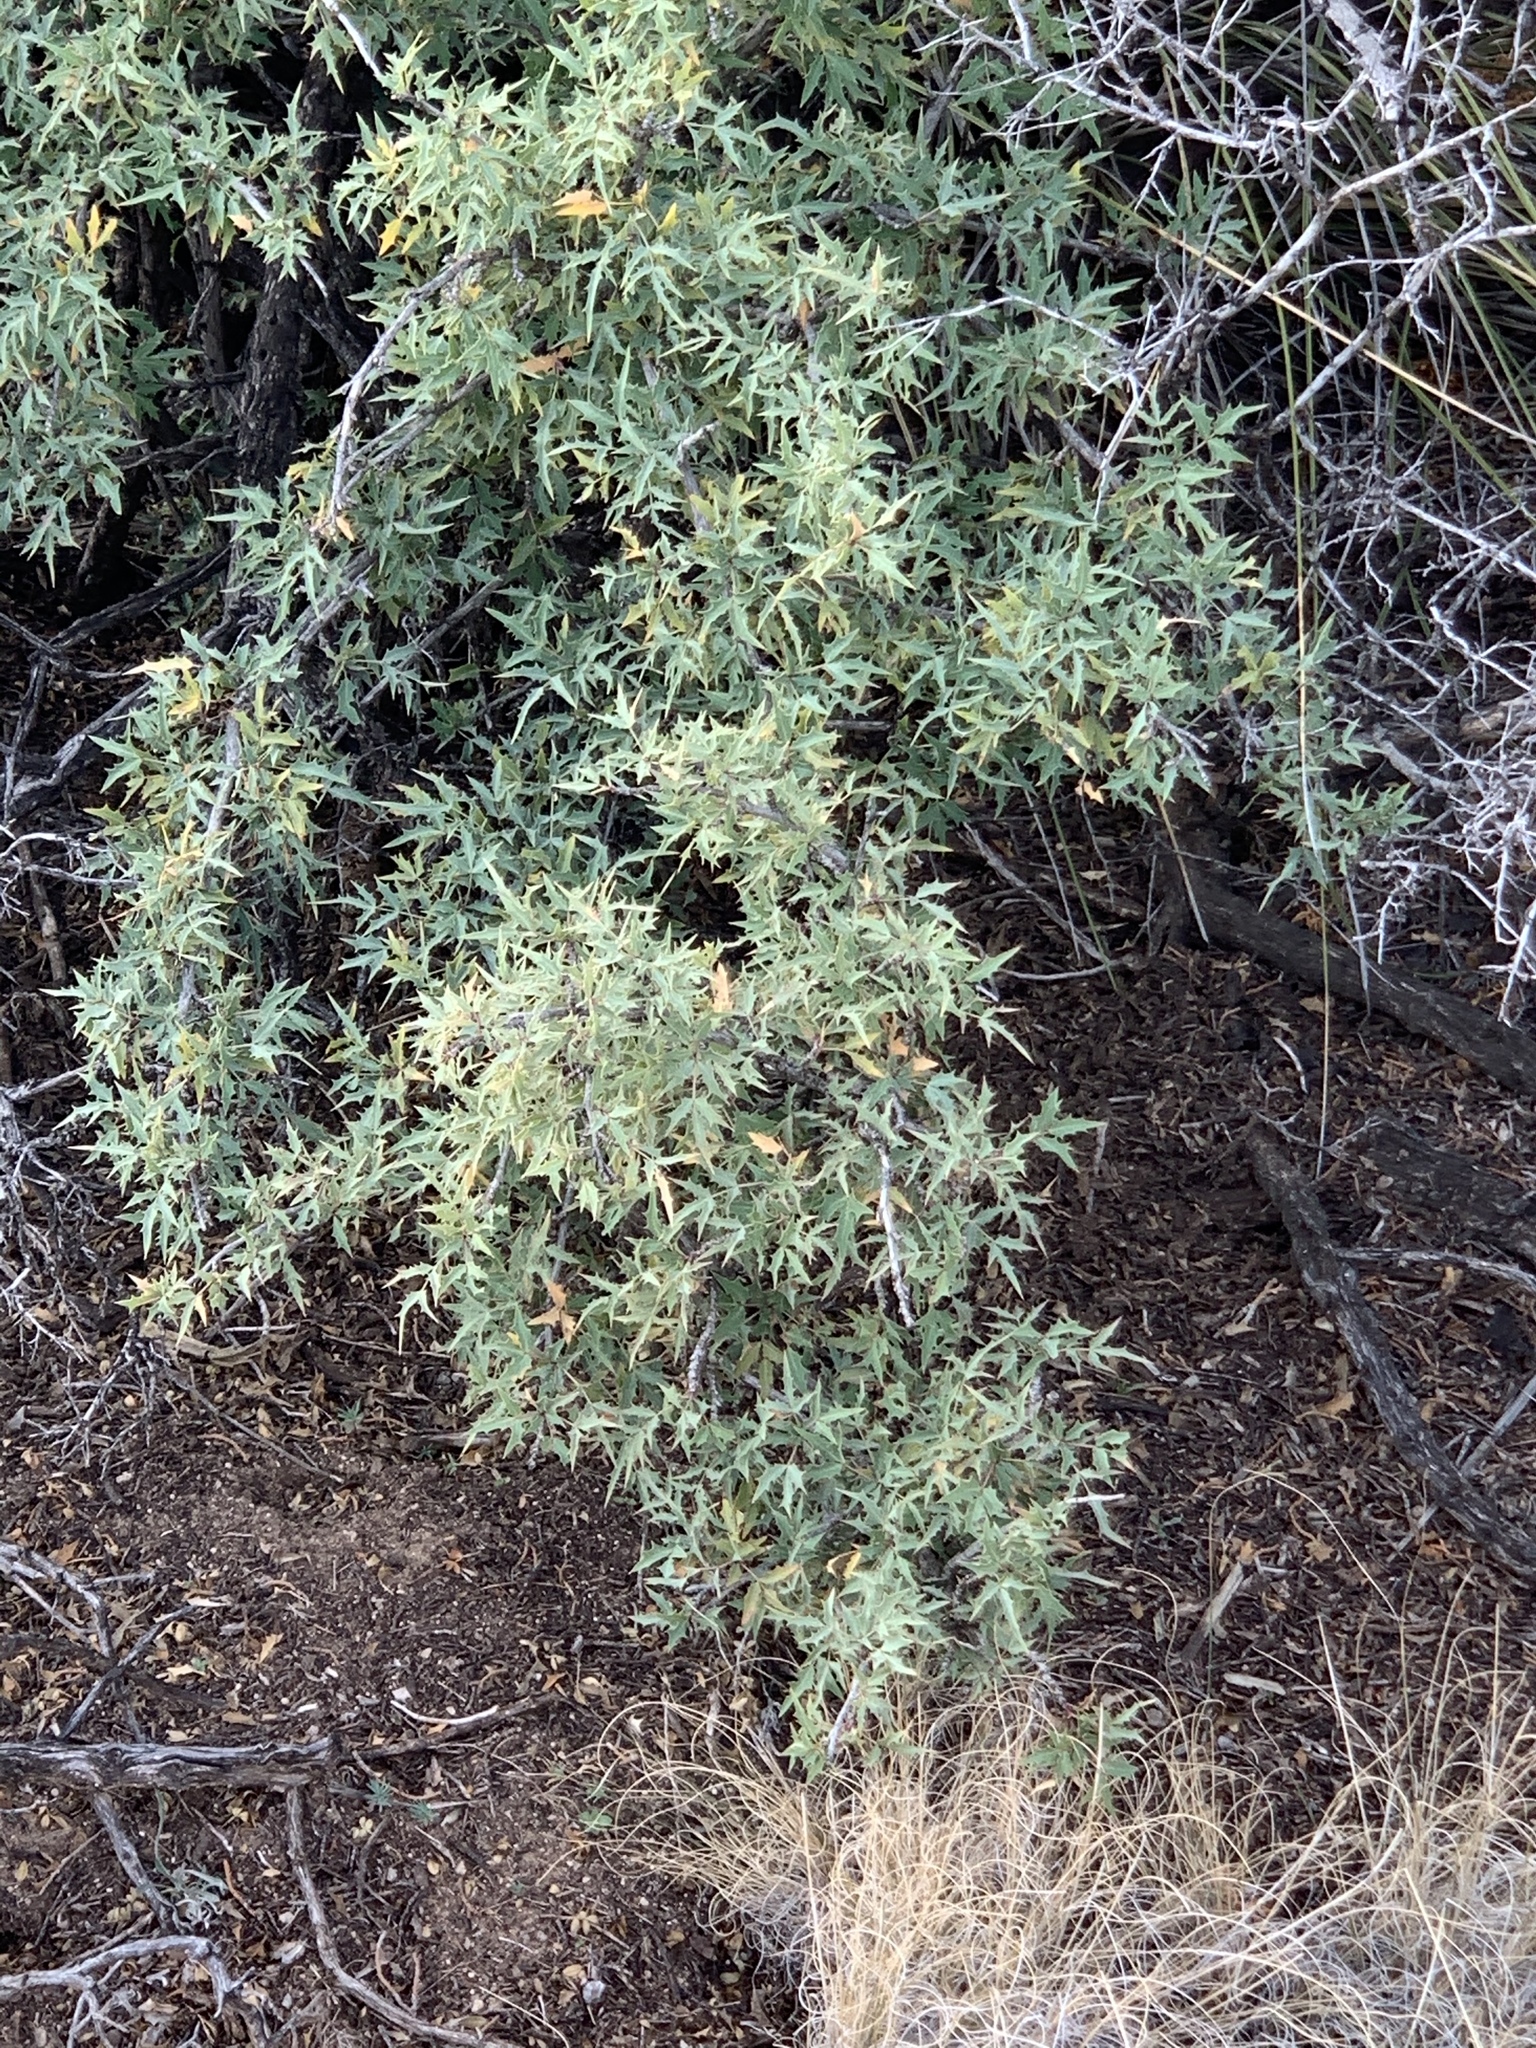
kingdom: Plantae
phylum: Tracheophyta
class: Magnoliopsida
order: Ranunculales
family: Berberidaceae
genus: Alloberberis
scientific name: Alloberberis haematocarpa
